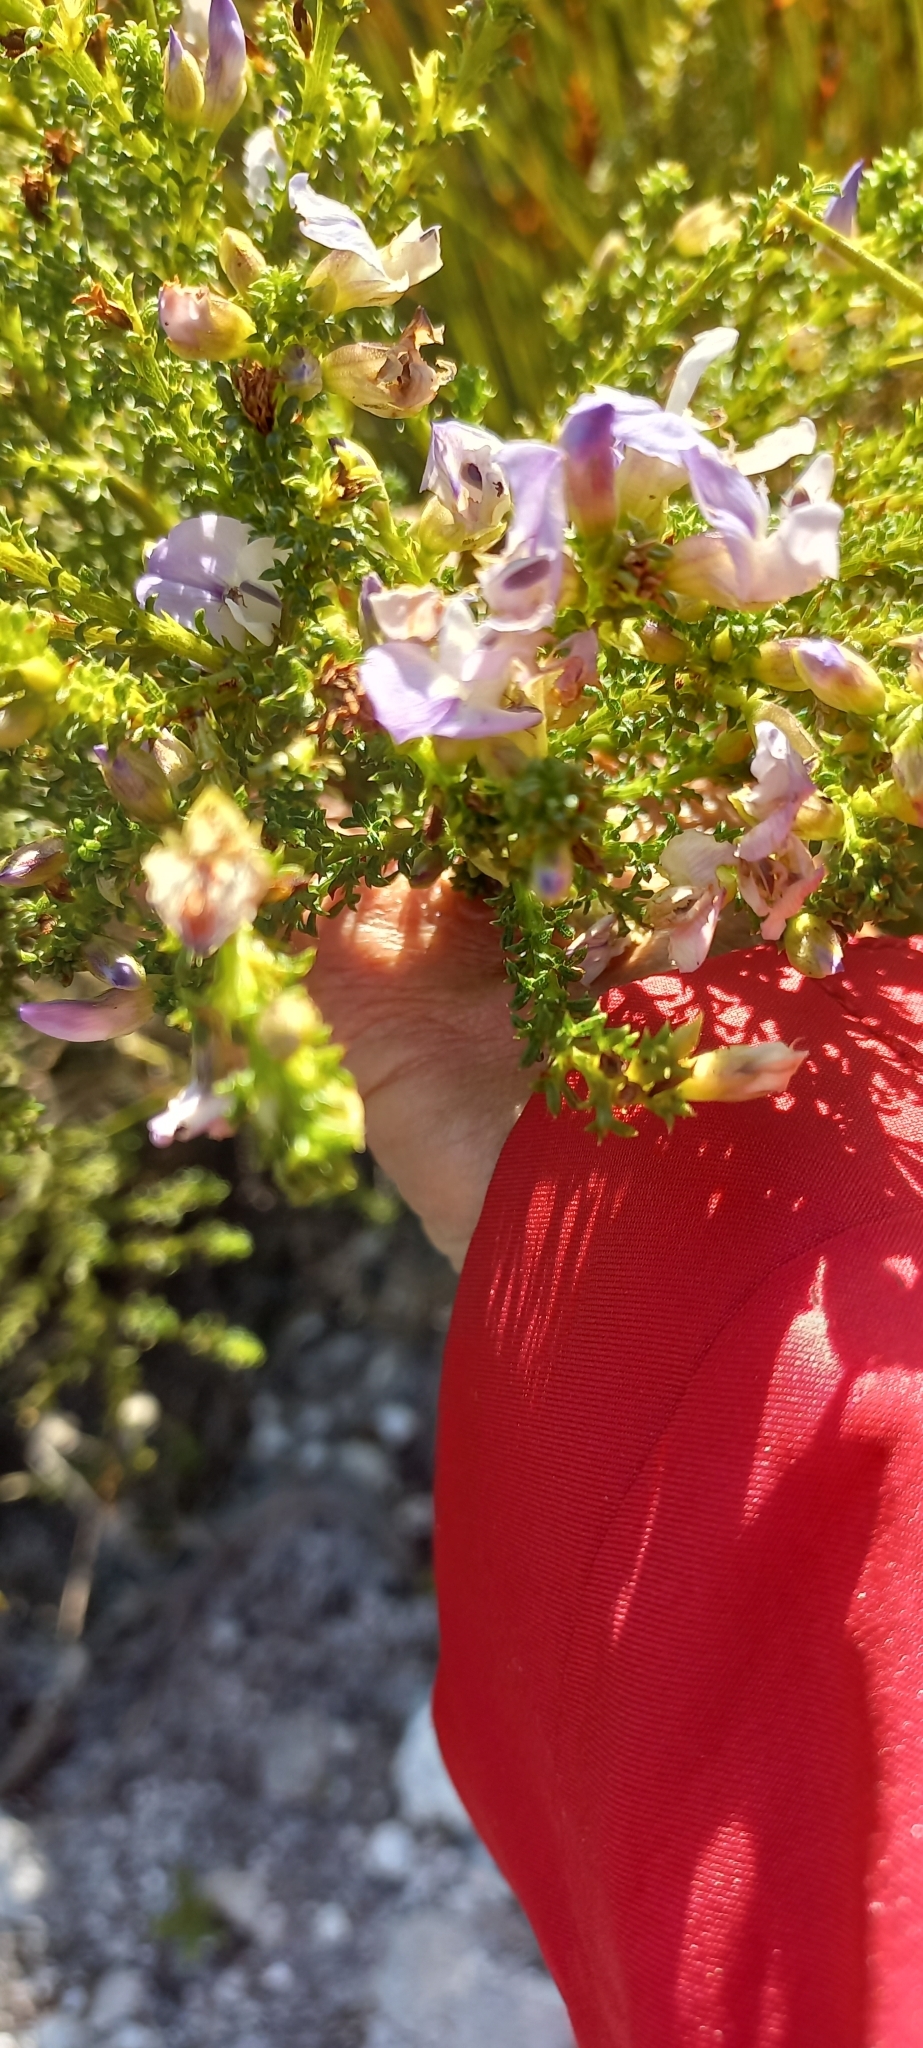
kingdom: Plantae
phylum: Tracheophyta
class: Magnoliopsida
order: Fabales
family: Fabaceae
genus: Psoralea
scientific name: Psoralea aculeata
